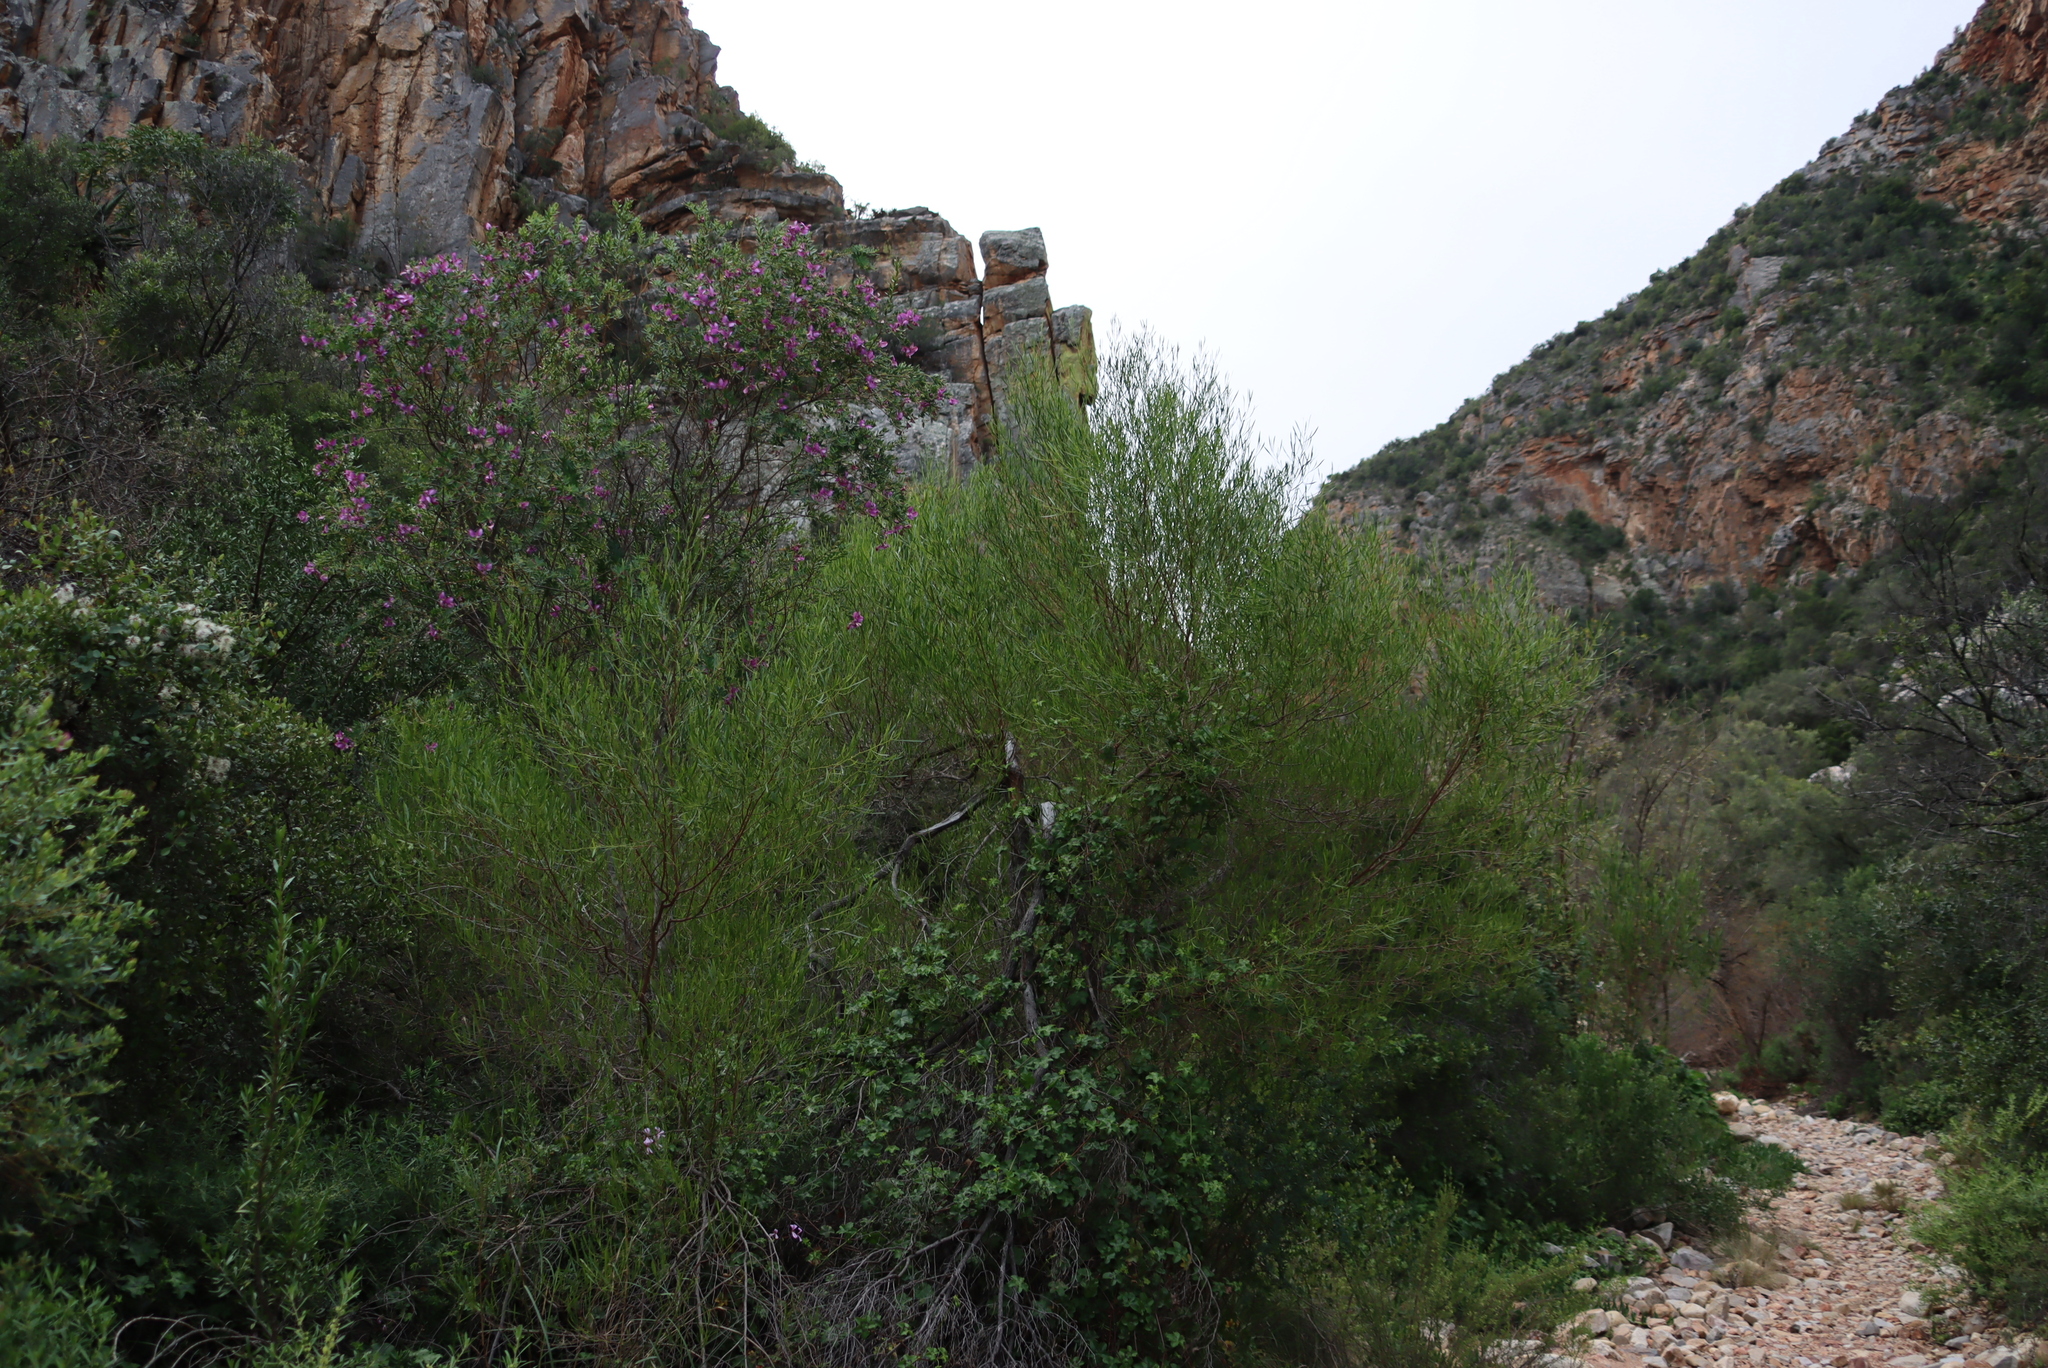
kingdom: Plantae
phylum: Tracheophyta
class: Magnoliopsida
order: Sapindales
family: Sapindaceae
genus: Dodonaea
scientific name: Dodonaea viscosa
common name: Hopbush
